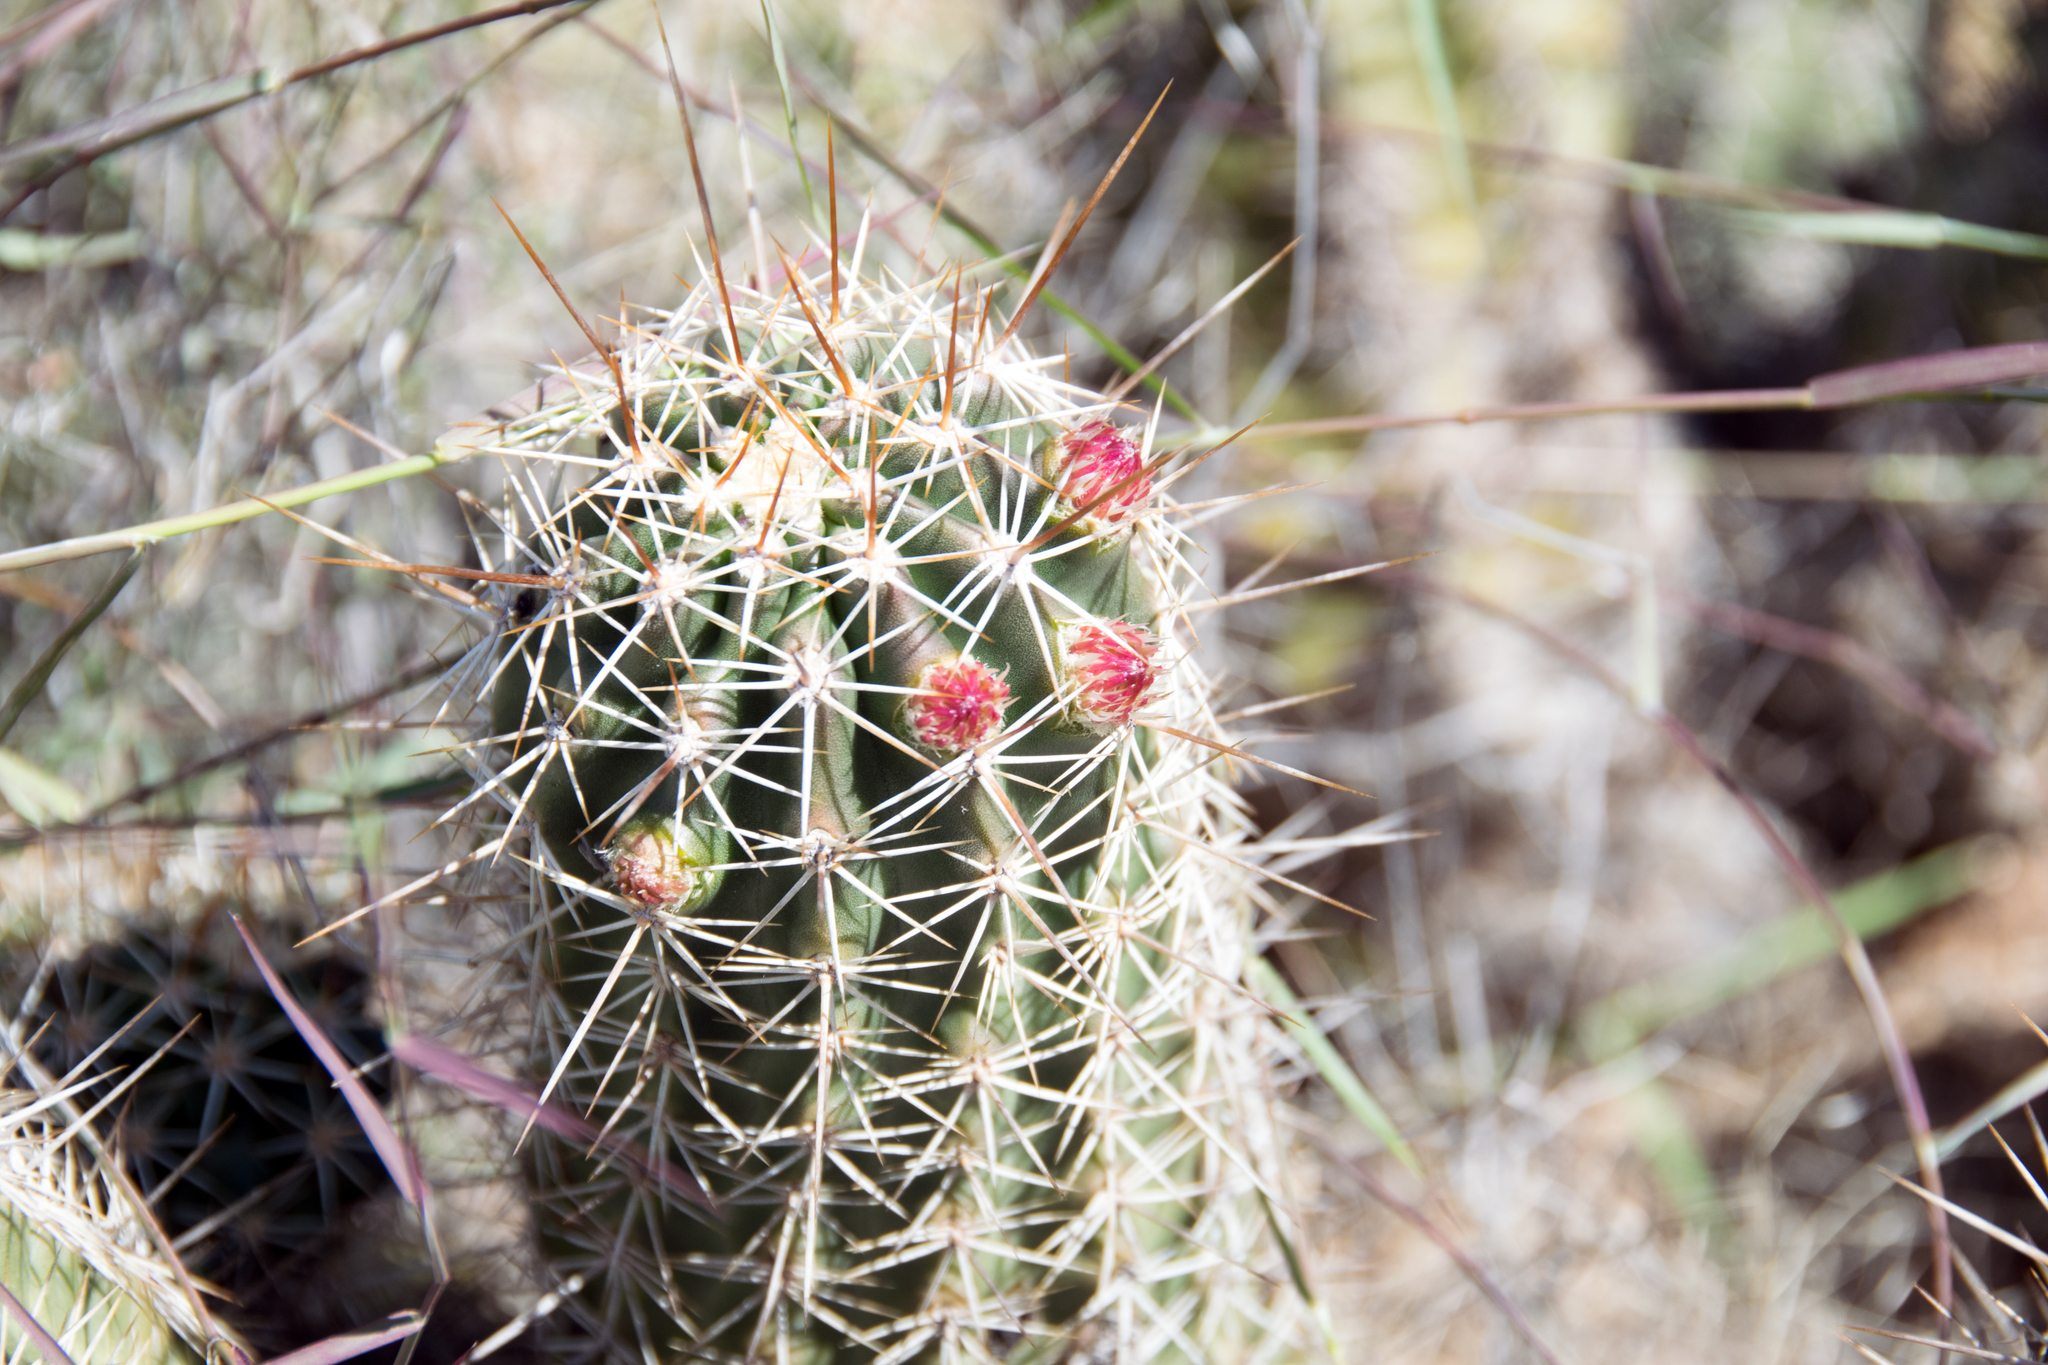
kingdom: Plantae
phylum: Tracheophyta
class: Magnoliopsida
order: Caryophyllales
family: Cactaceae
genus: Echinocereus
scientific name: Echinocereus fasciculatus
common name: Bundle hedgehog
